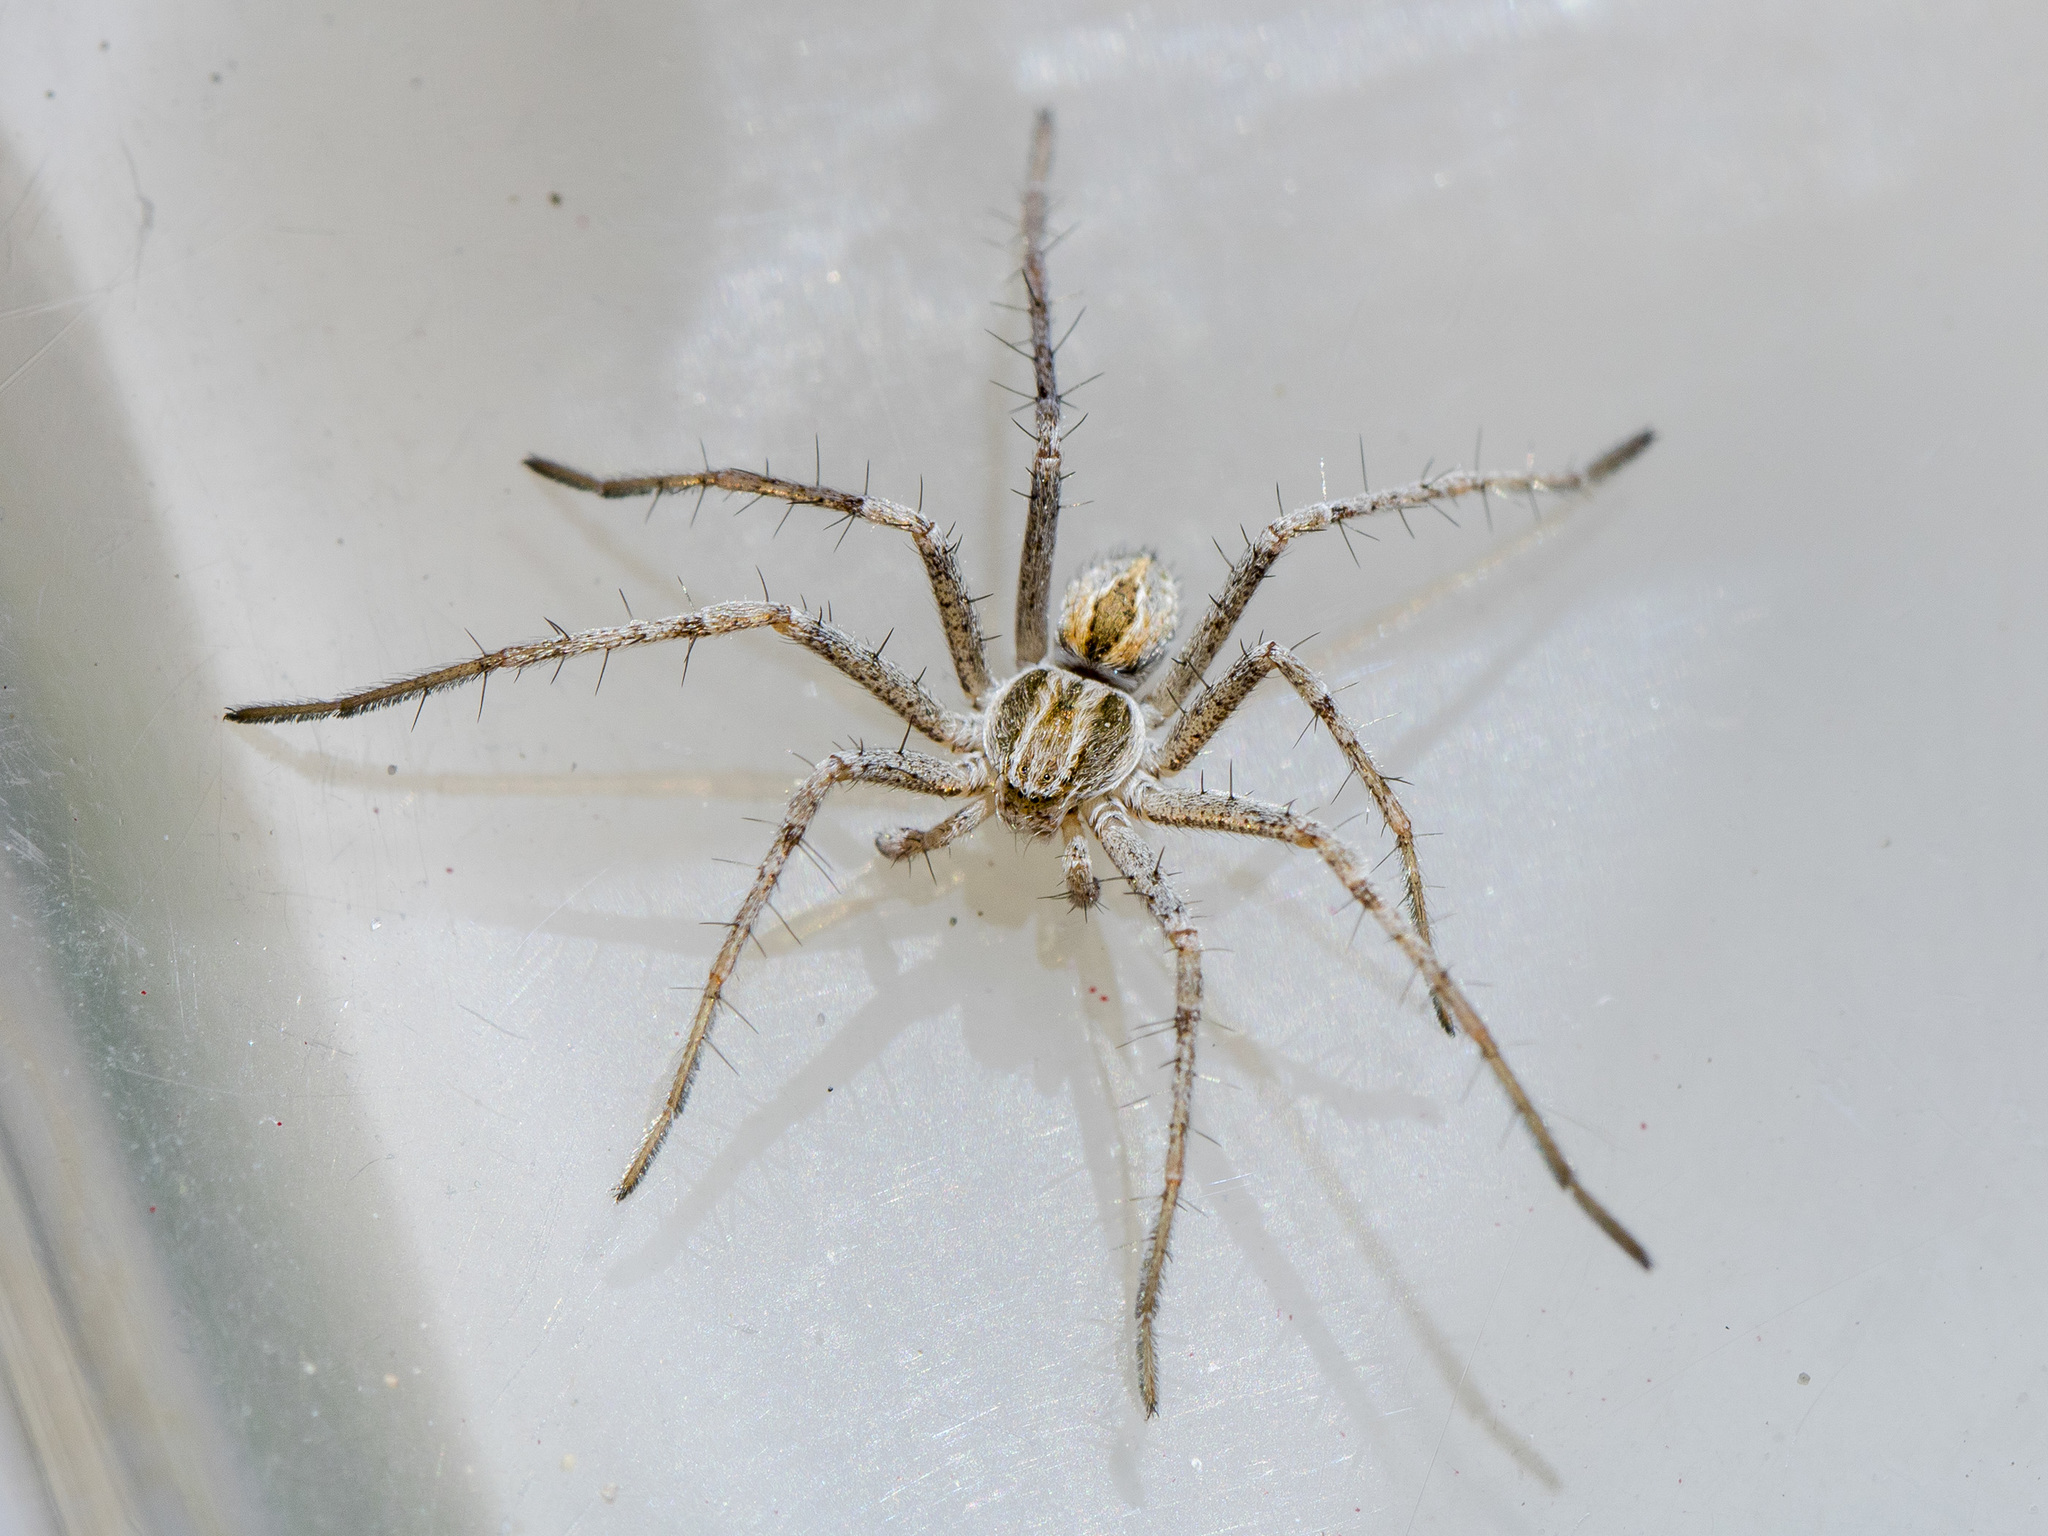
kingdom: Animalia
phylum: Arthropoda
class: Arachnida
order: Araneae
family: Philodromidae
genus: Thanatus
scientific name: Thanatus fabricii
